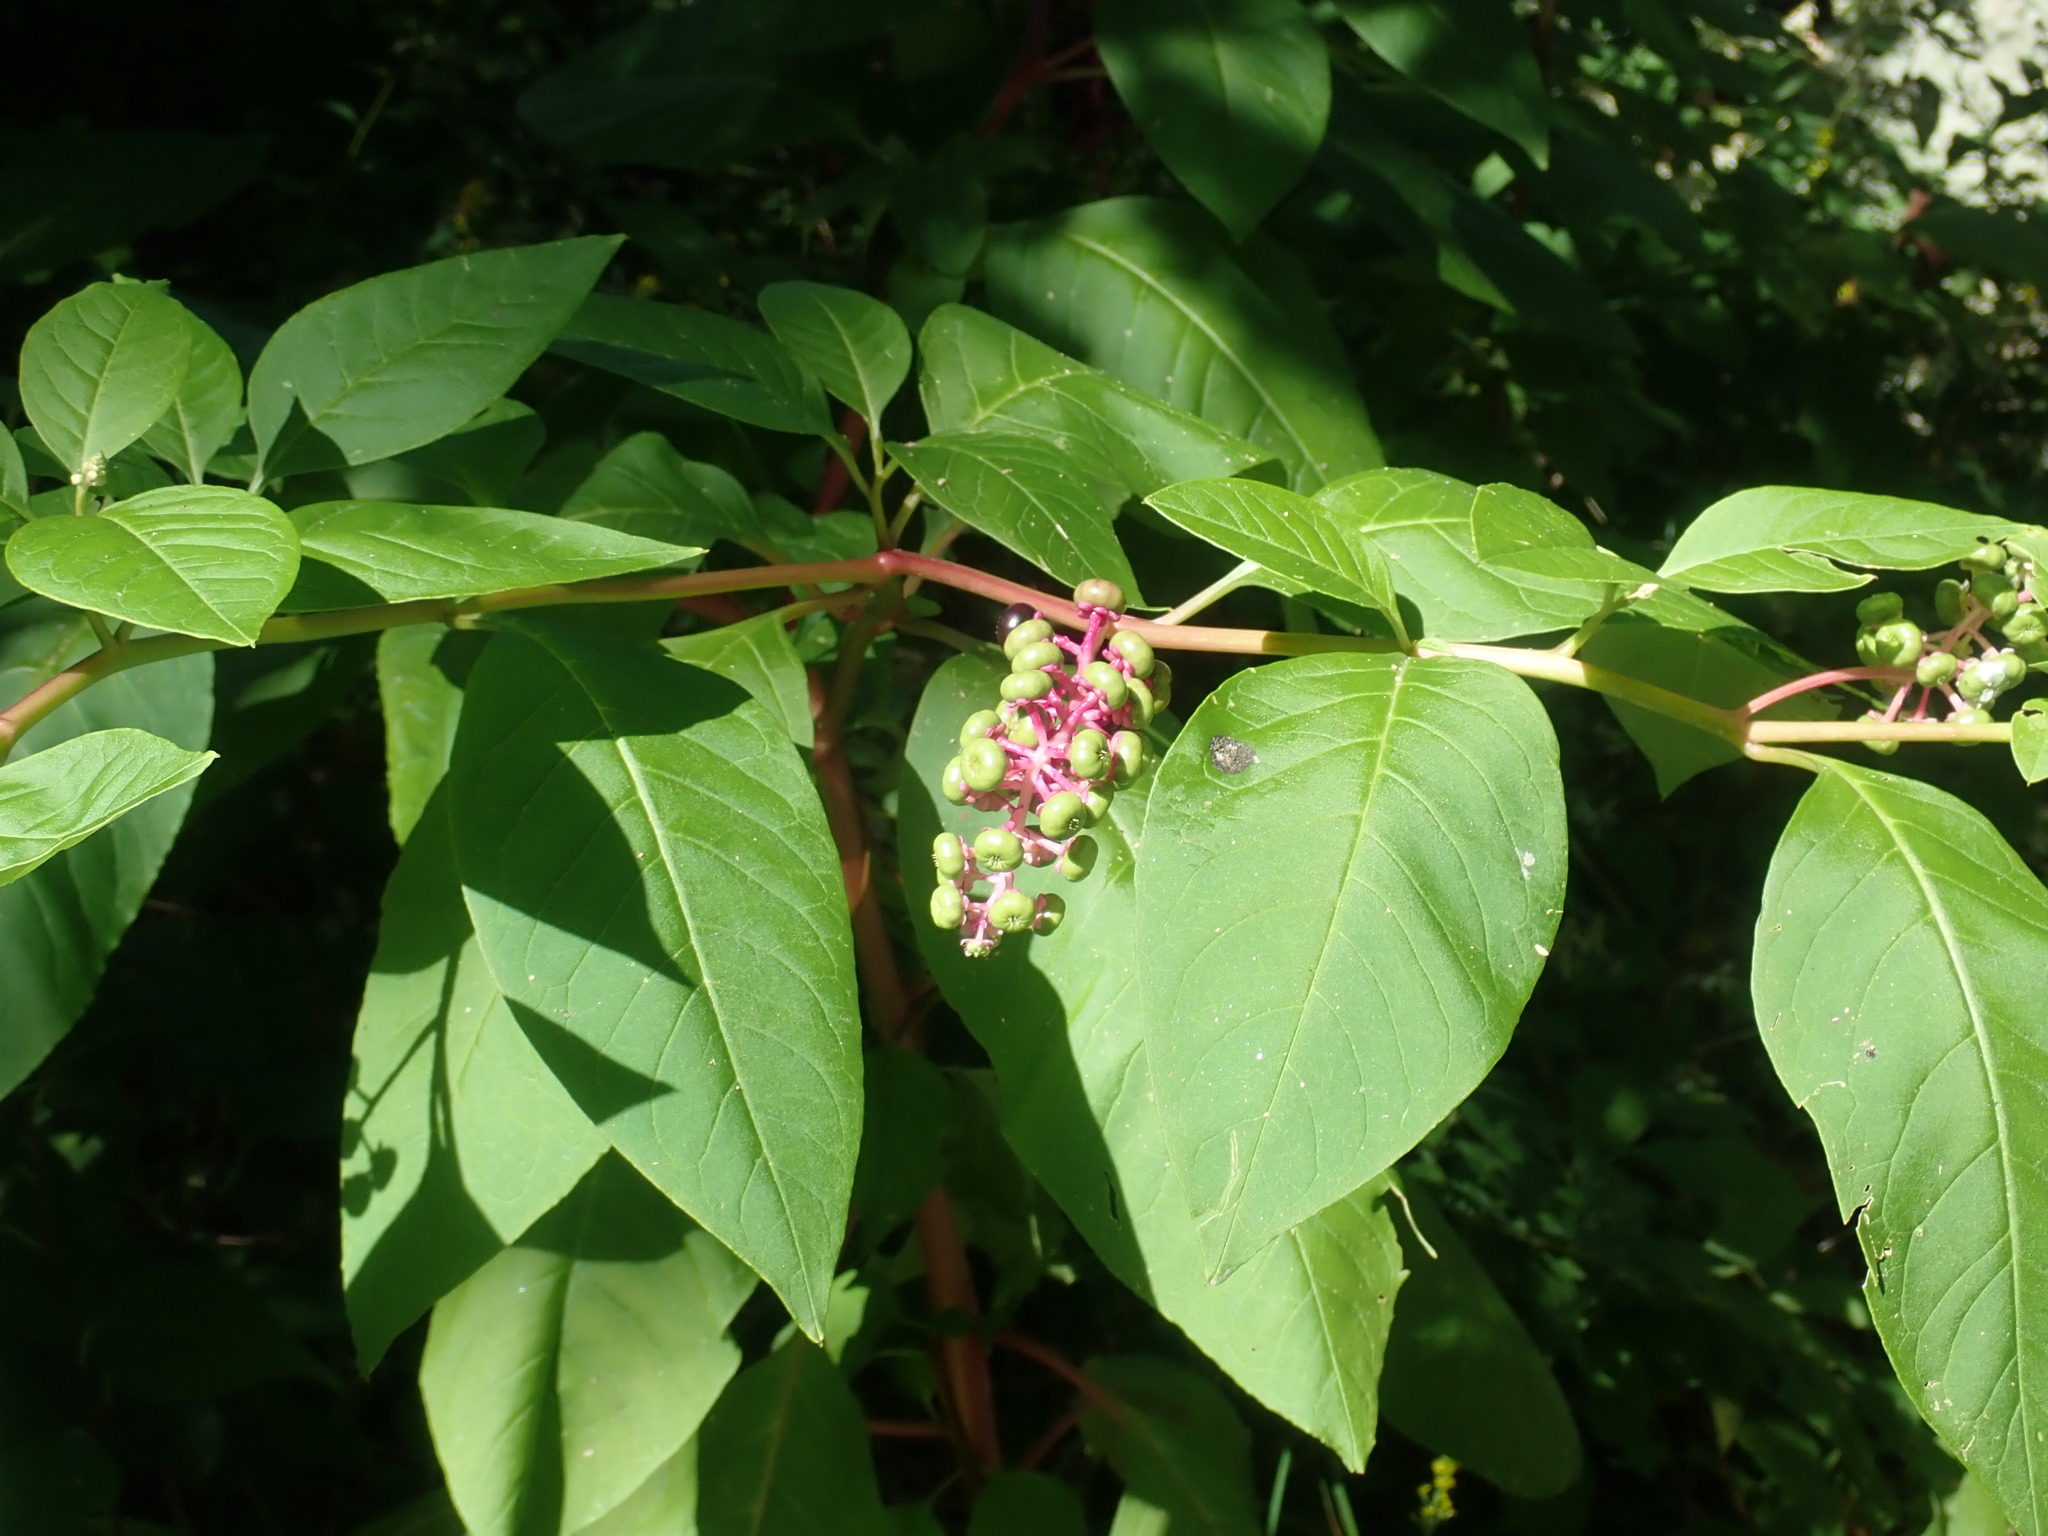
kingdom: Plantae
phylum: Tracheophyta
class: Magnoliopsida
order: Caryophyllales
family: Phytolaccaceae
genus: Phytolacca
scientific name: Phytolacca americana
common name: American pokeweed
